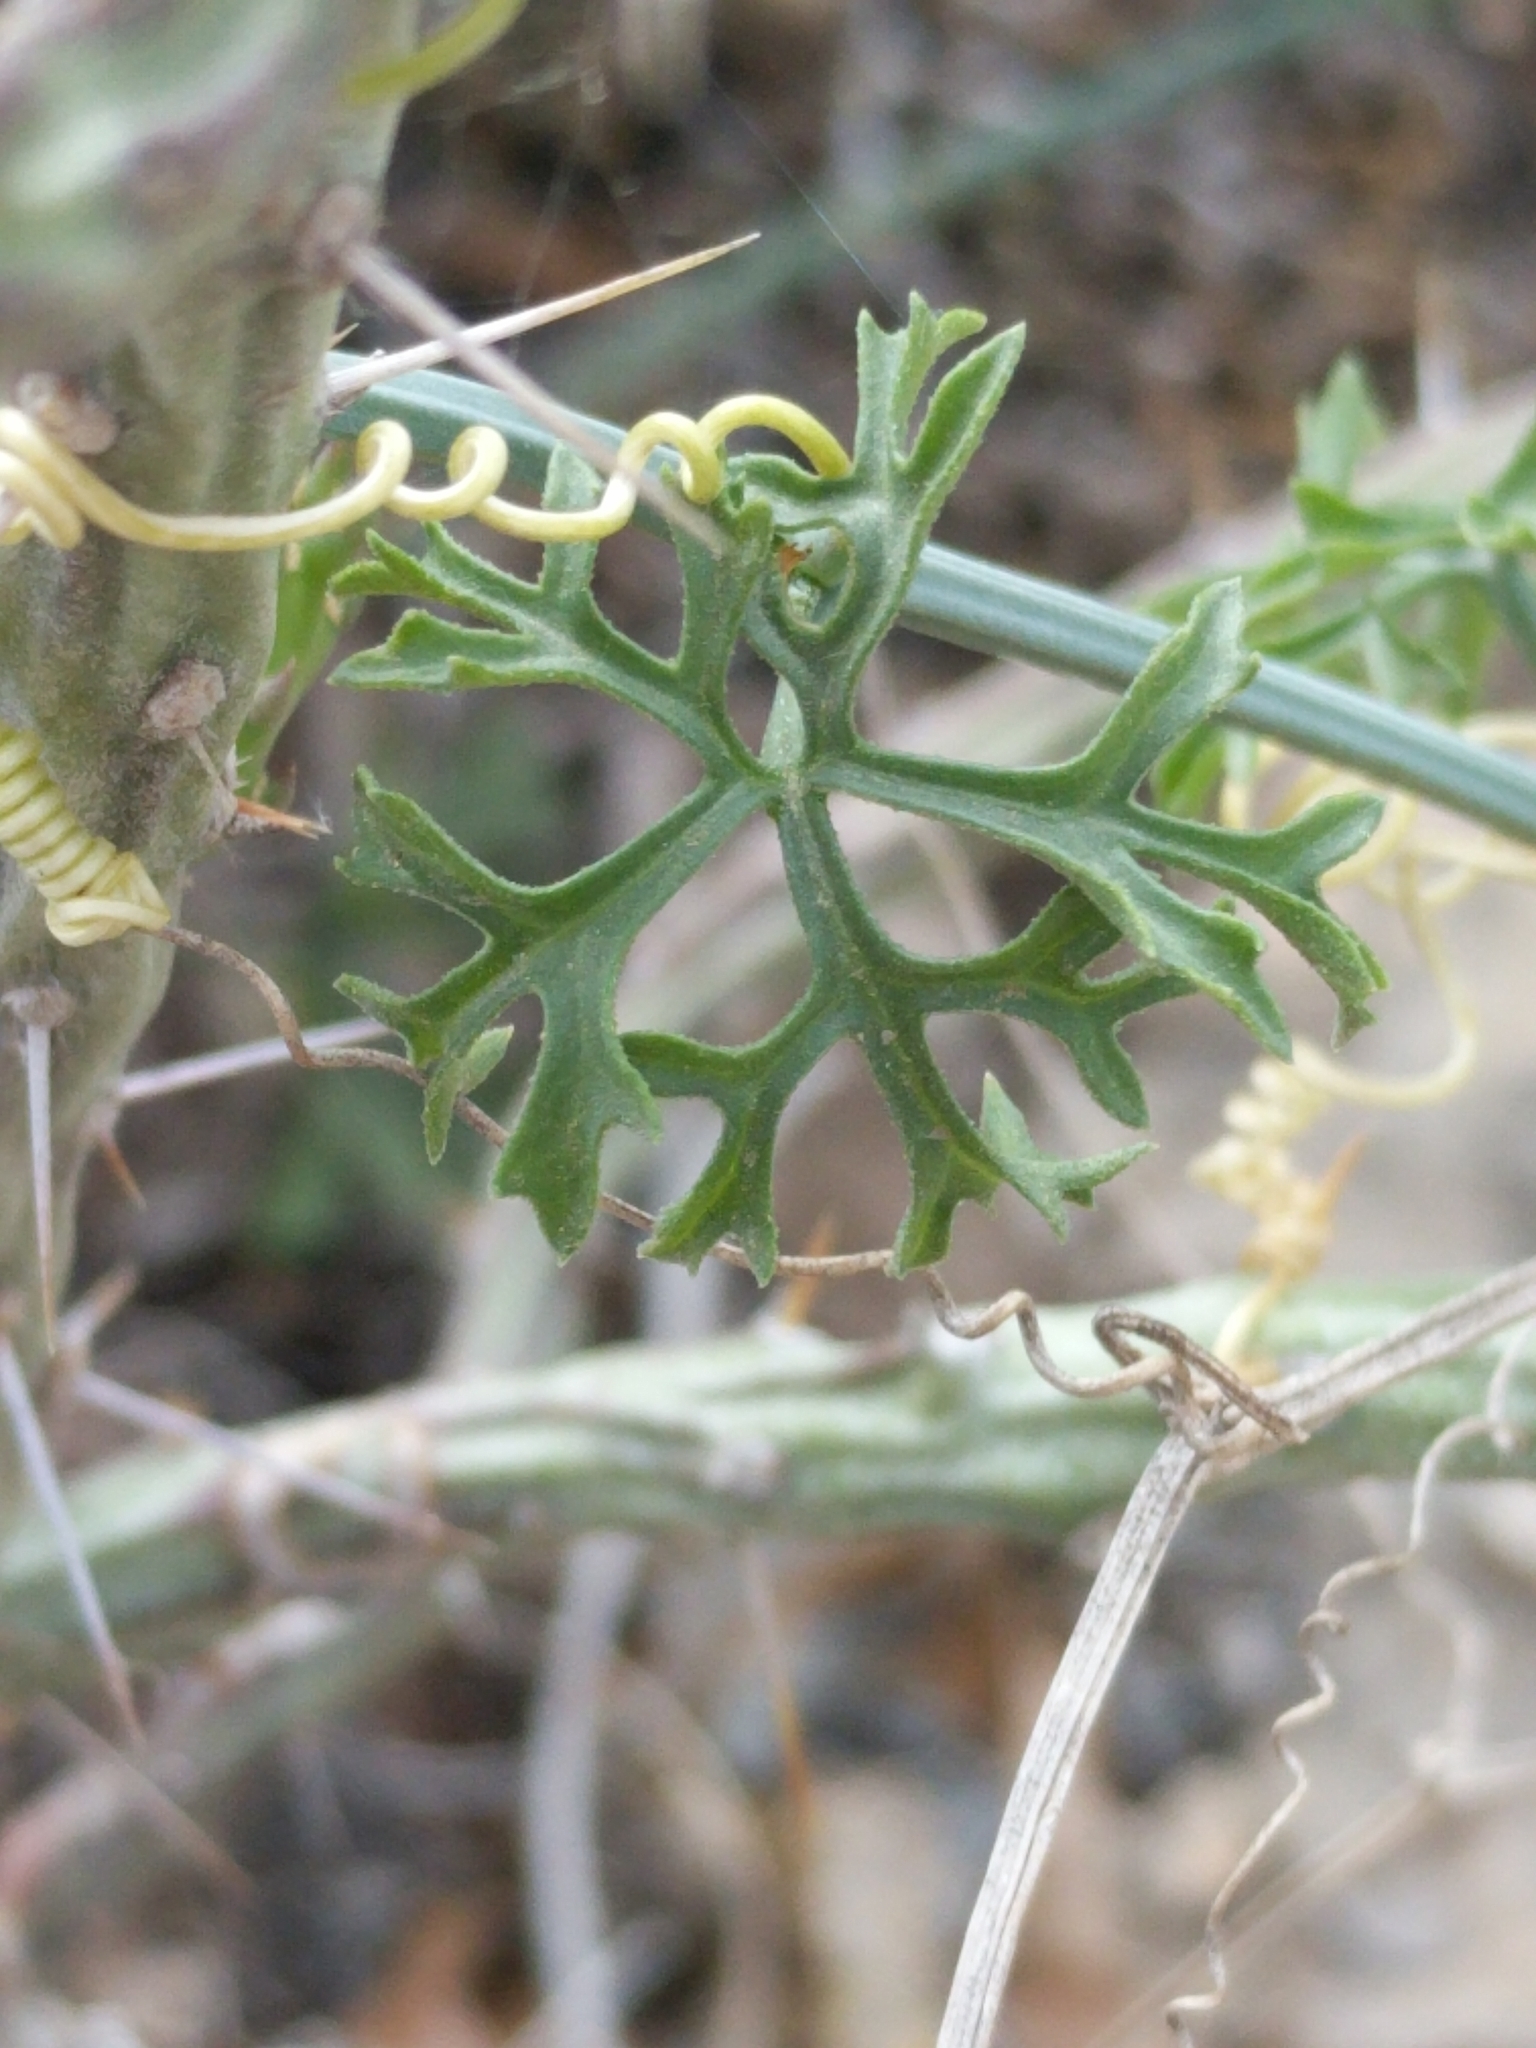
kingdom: Plantae
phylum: Tracheophyta
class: Magnoliopsida
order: Cucurbitales
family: Cucurbitaceae
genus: Ibervillea
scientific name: Ibervillea tenuisecta
